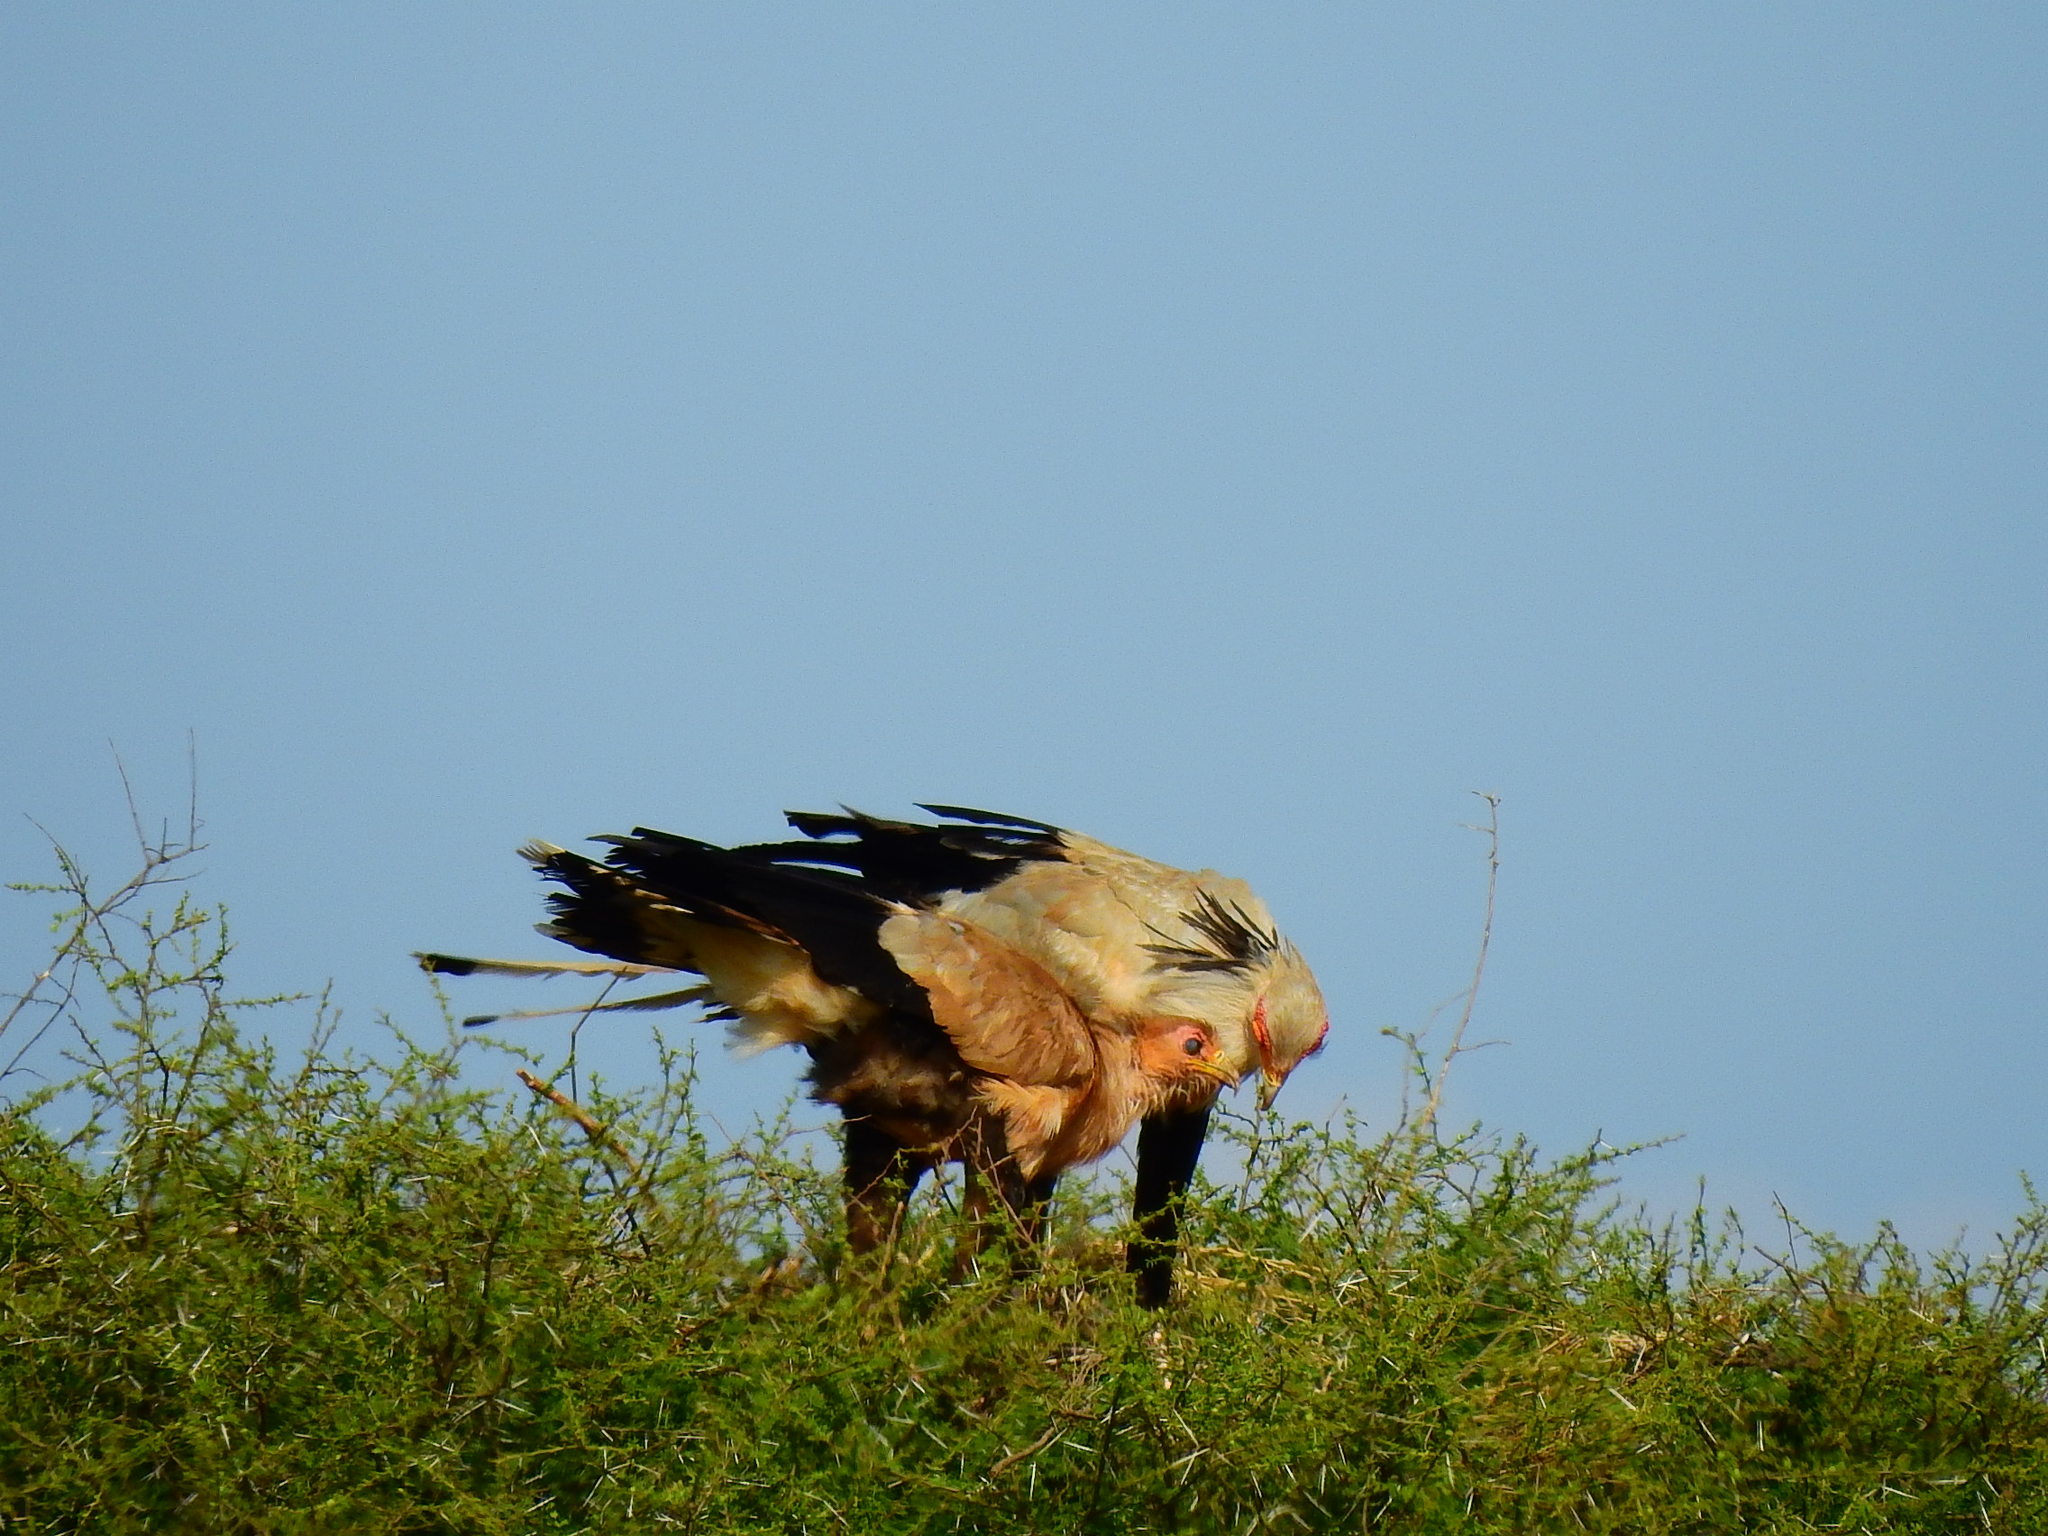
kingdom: Animalia
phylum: Chordata
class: Aves
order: Accipitriformes
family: Sagittariidae
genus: Sagittarius
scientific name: Sagittarius serpentarius
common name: Secretarybird
